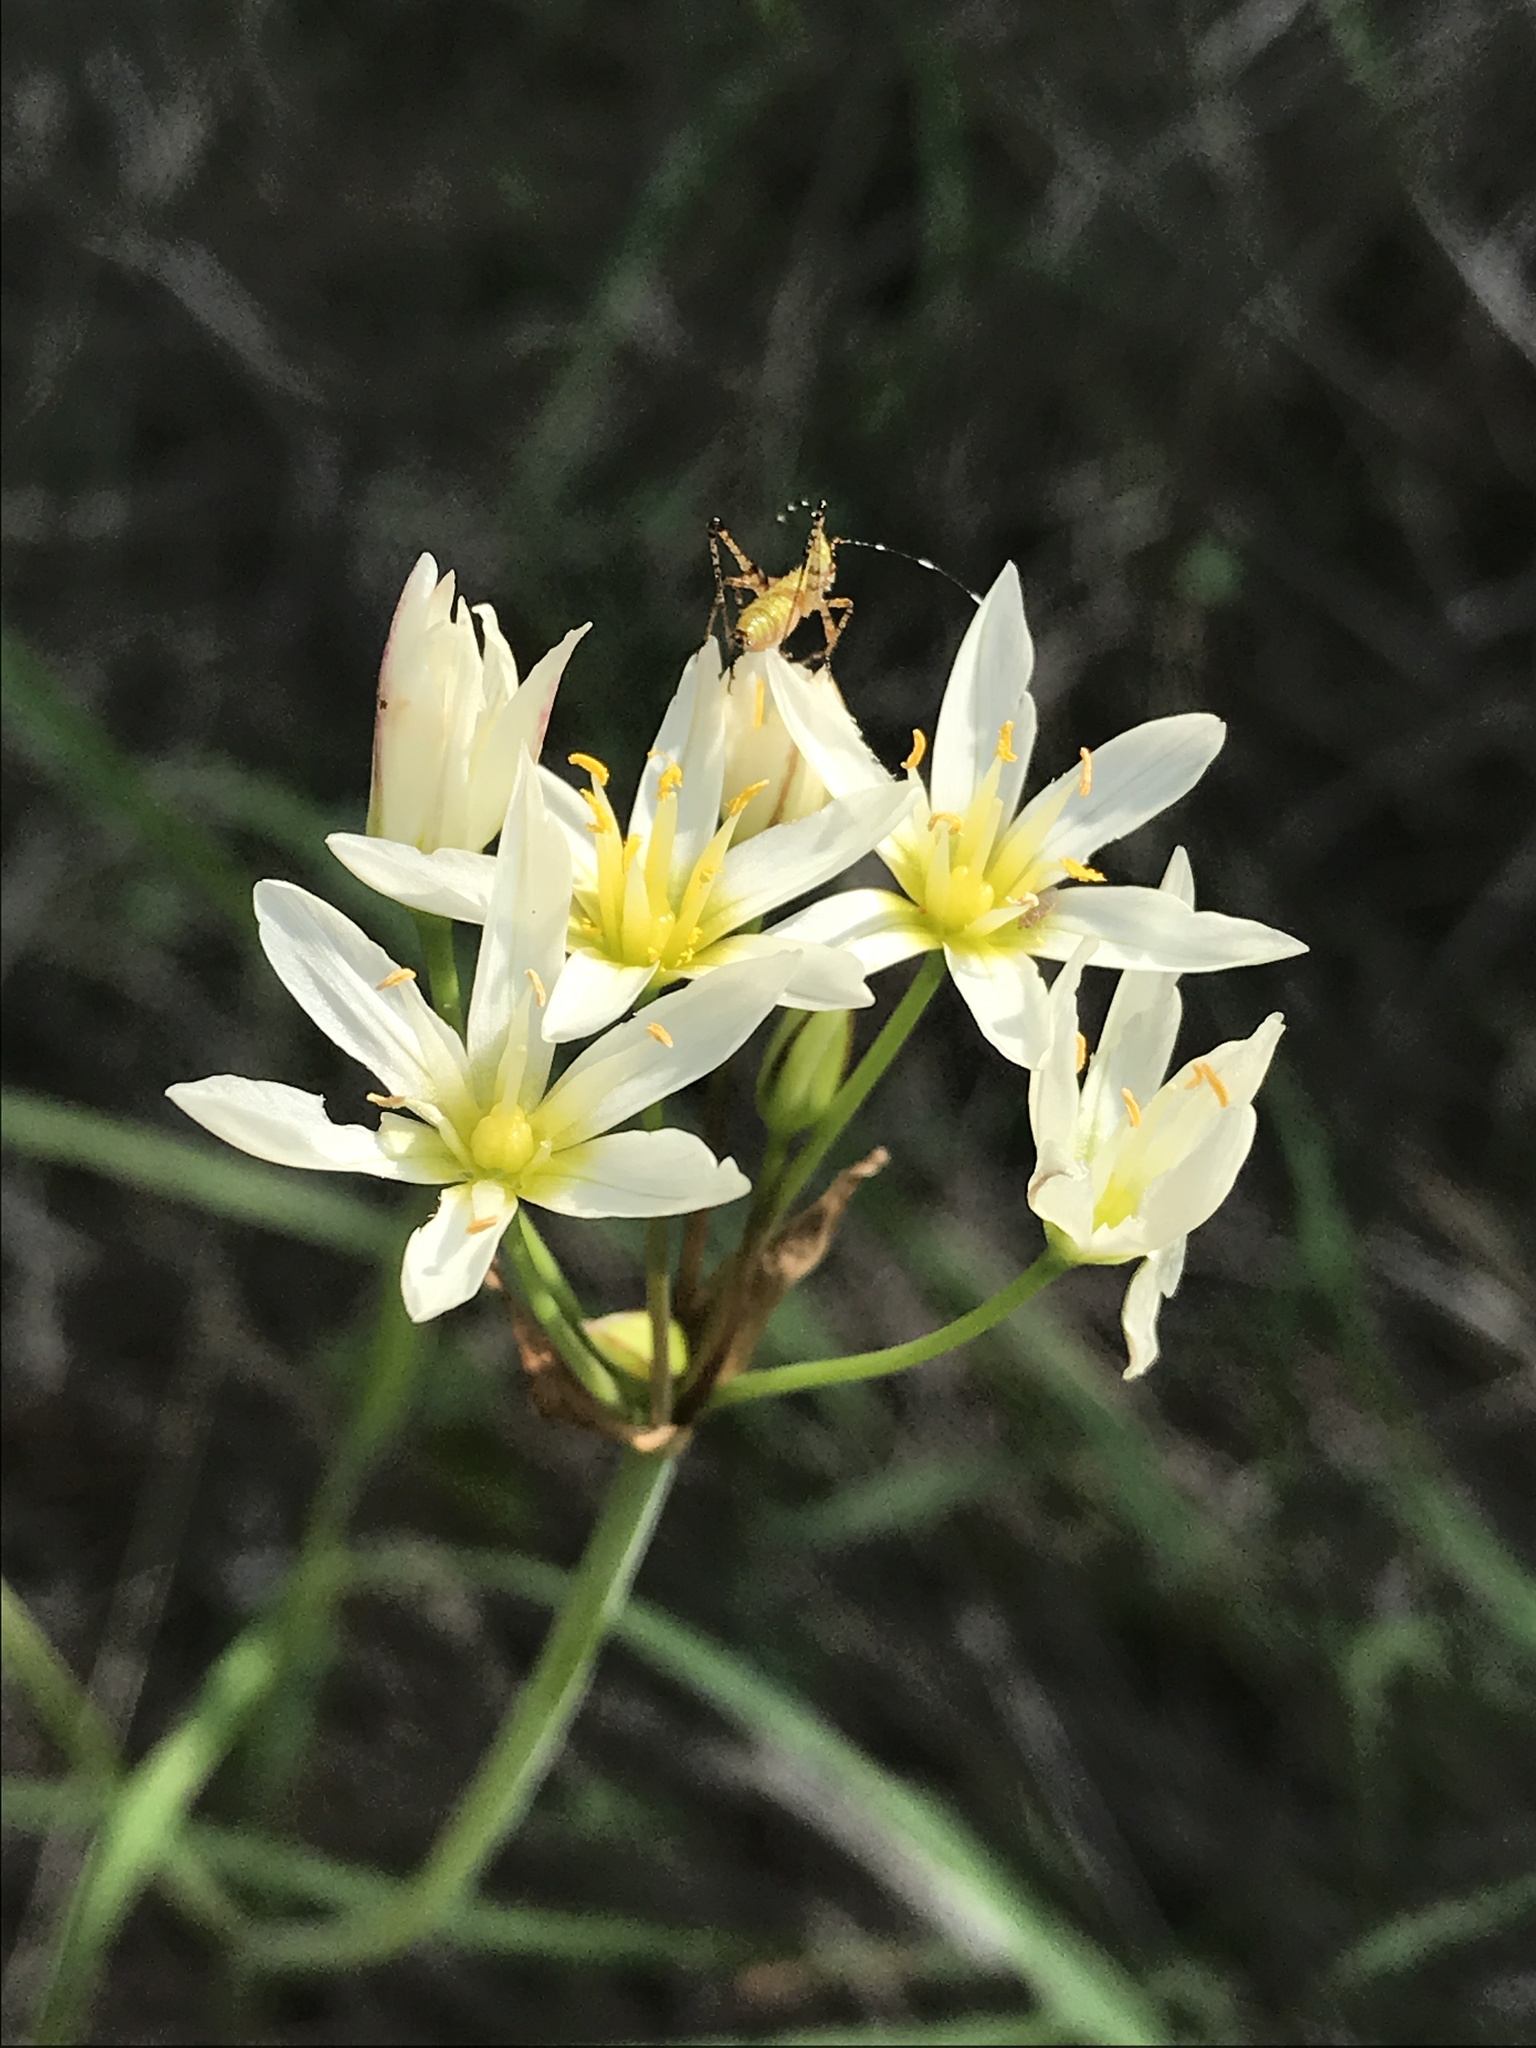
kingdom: Plantae
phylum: Tracheophyta
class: Liliopsida
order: Asparagales
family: Amaryllidaceae
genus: Nothoscordum
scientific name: Nothoscordum bivalve
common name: Crow-poison
